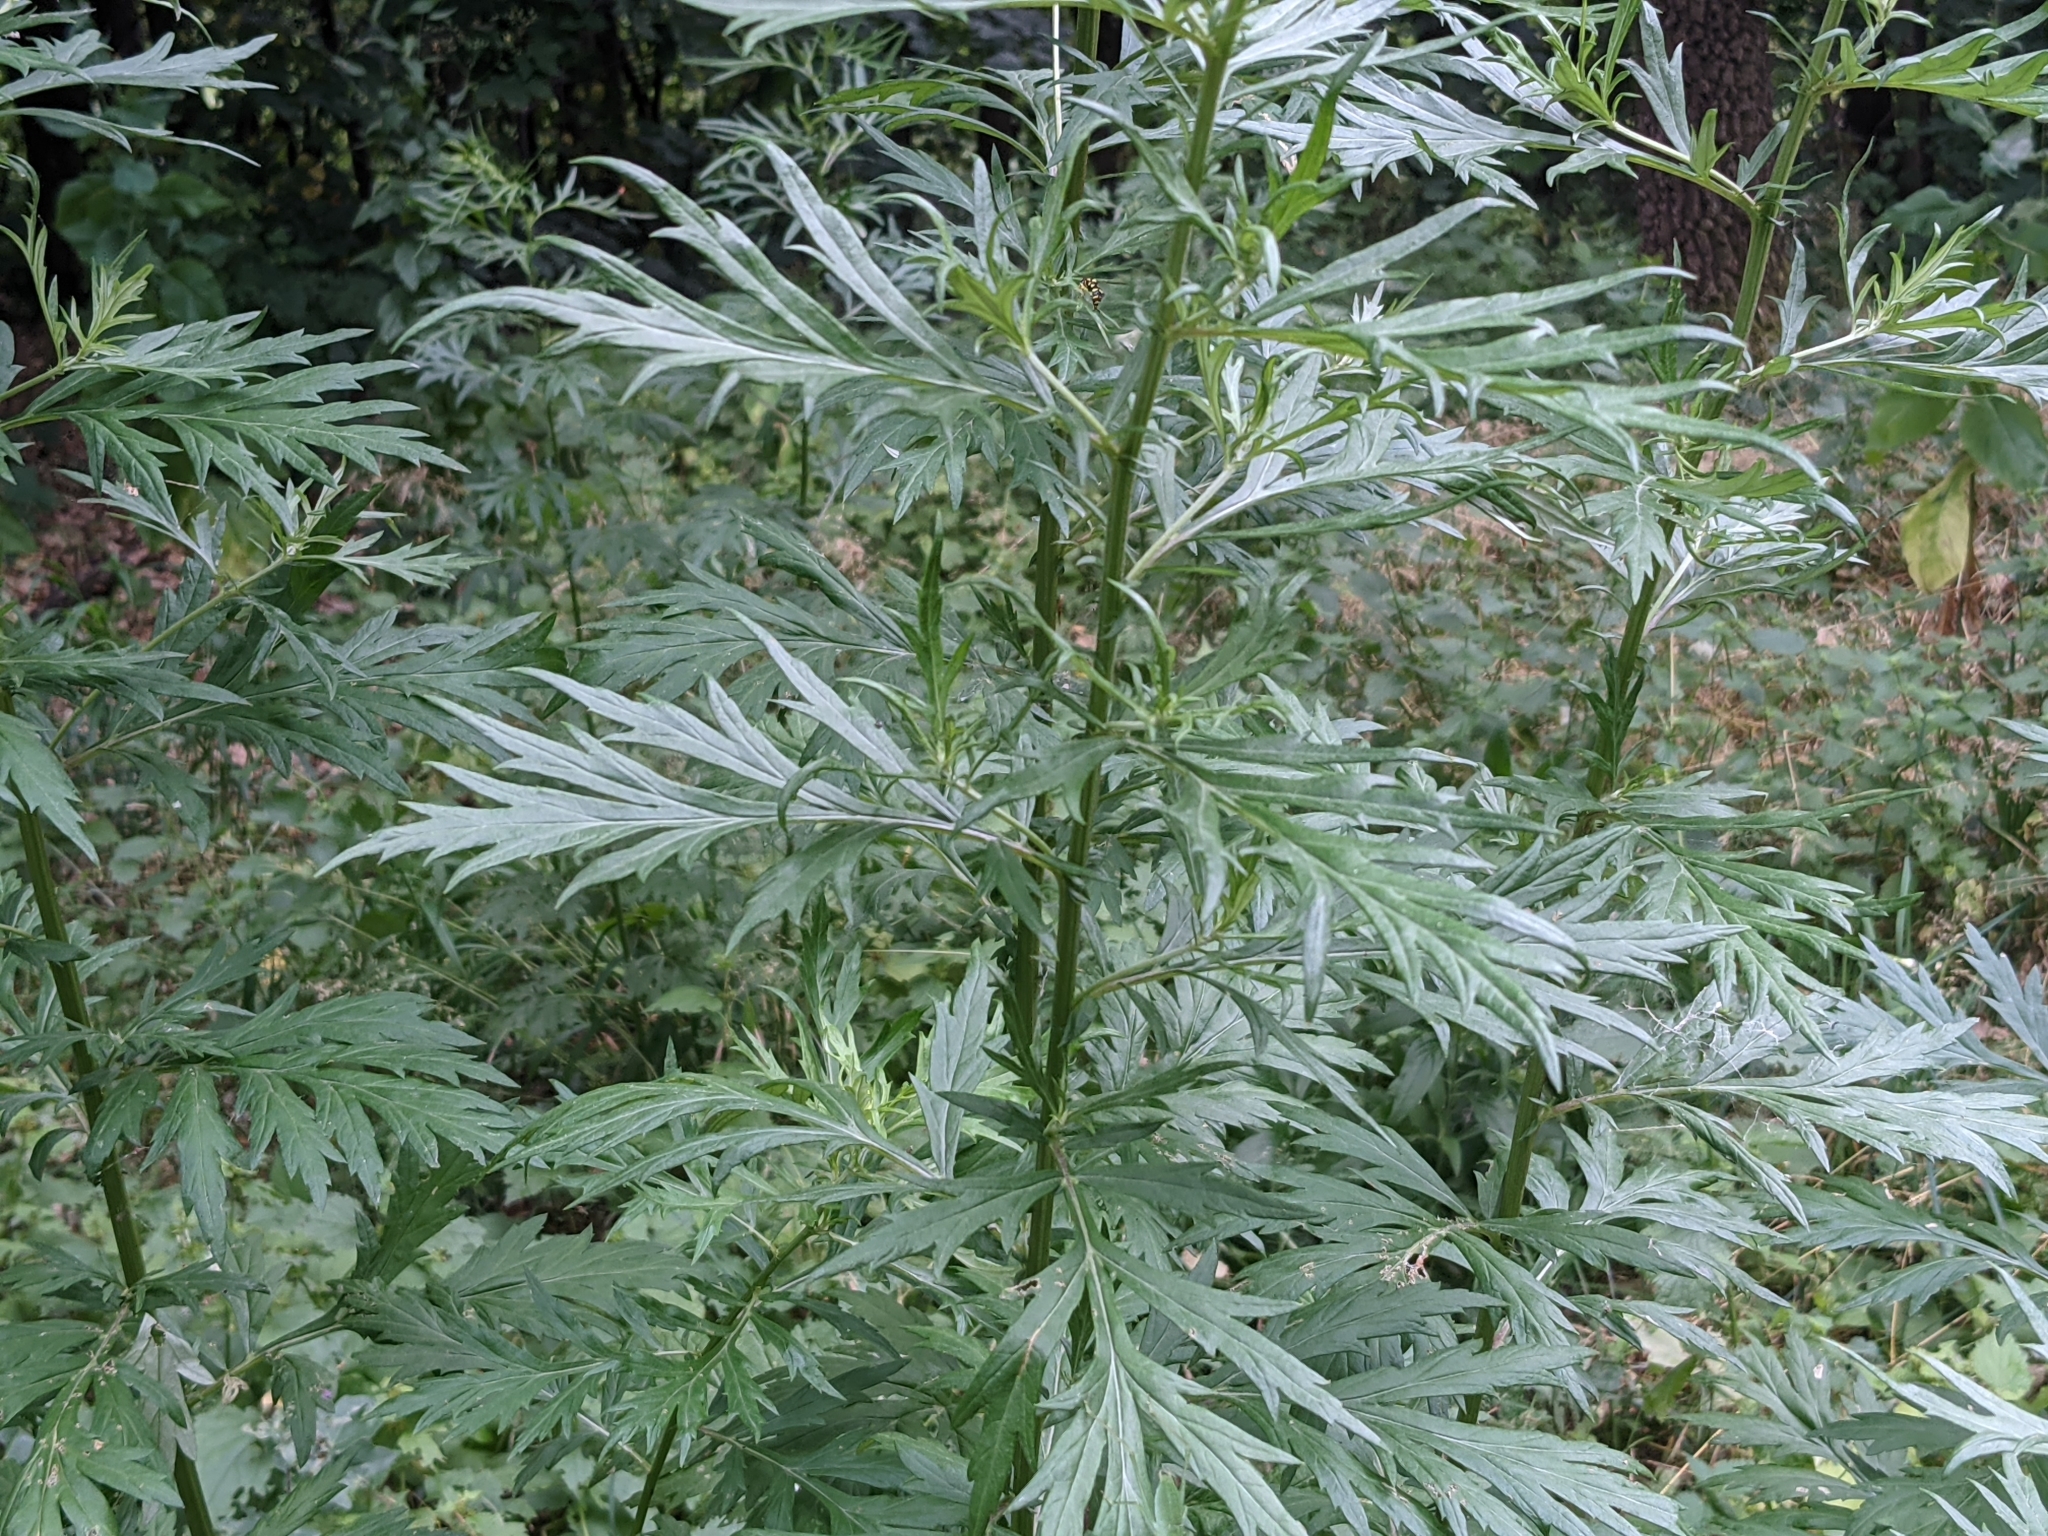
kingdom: Plantae
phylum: Tracheophyta
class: Magnoliopsida
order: Asterales
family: Asteraceae
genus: Artemisia
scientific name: Artemisia vulgaris
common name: Mugwort
